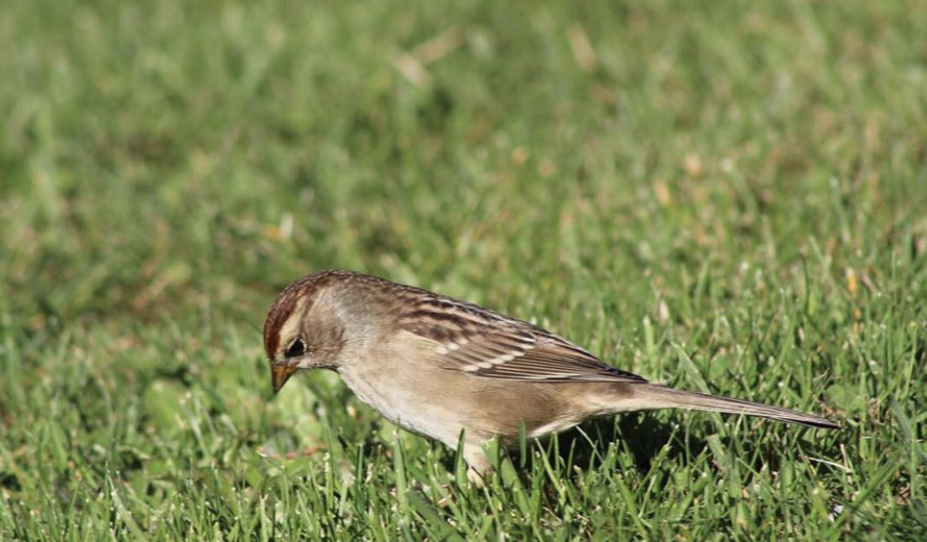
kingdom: Animalia
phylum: Chordata
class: Aves
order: Passeriformes
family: Passerellidae
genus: Zonotrichia
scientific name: Zonotrichia leucophrys
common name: White-crowned sparrow
